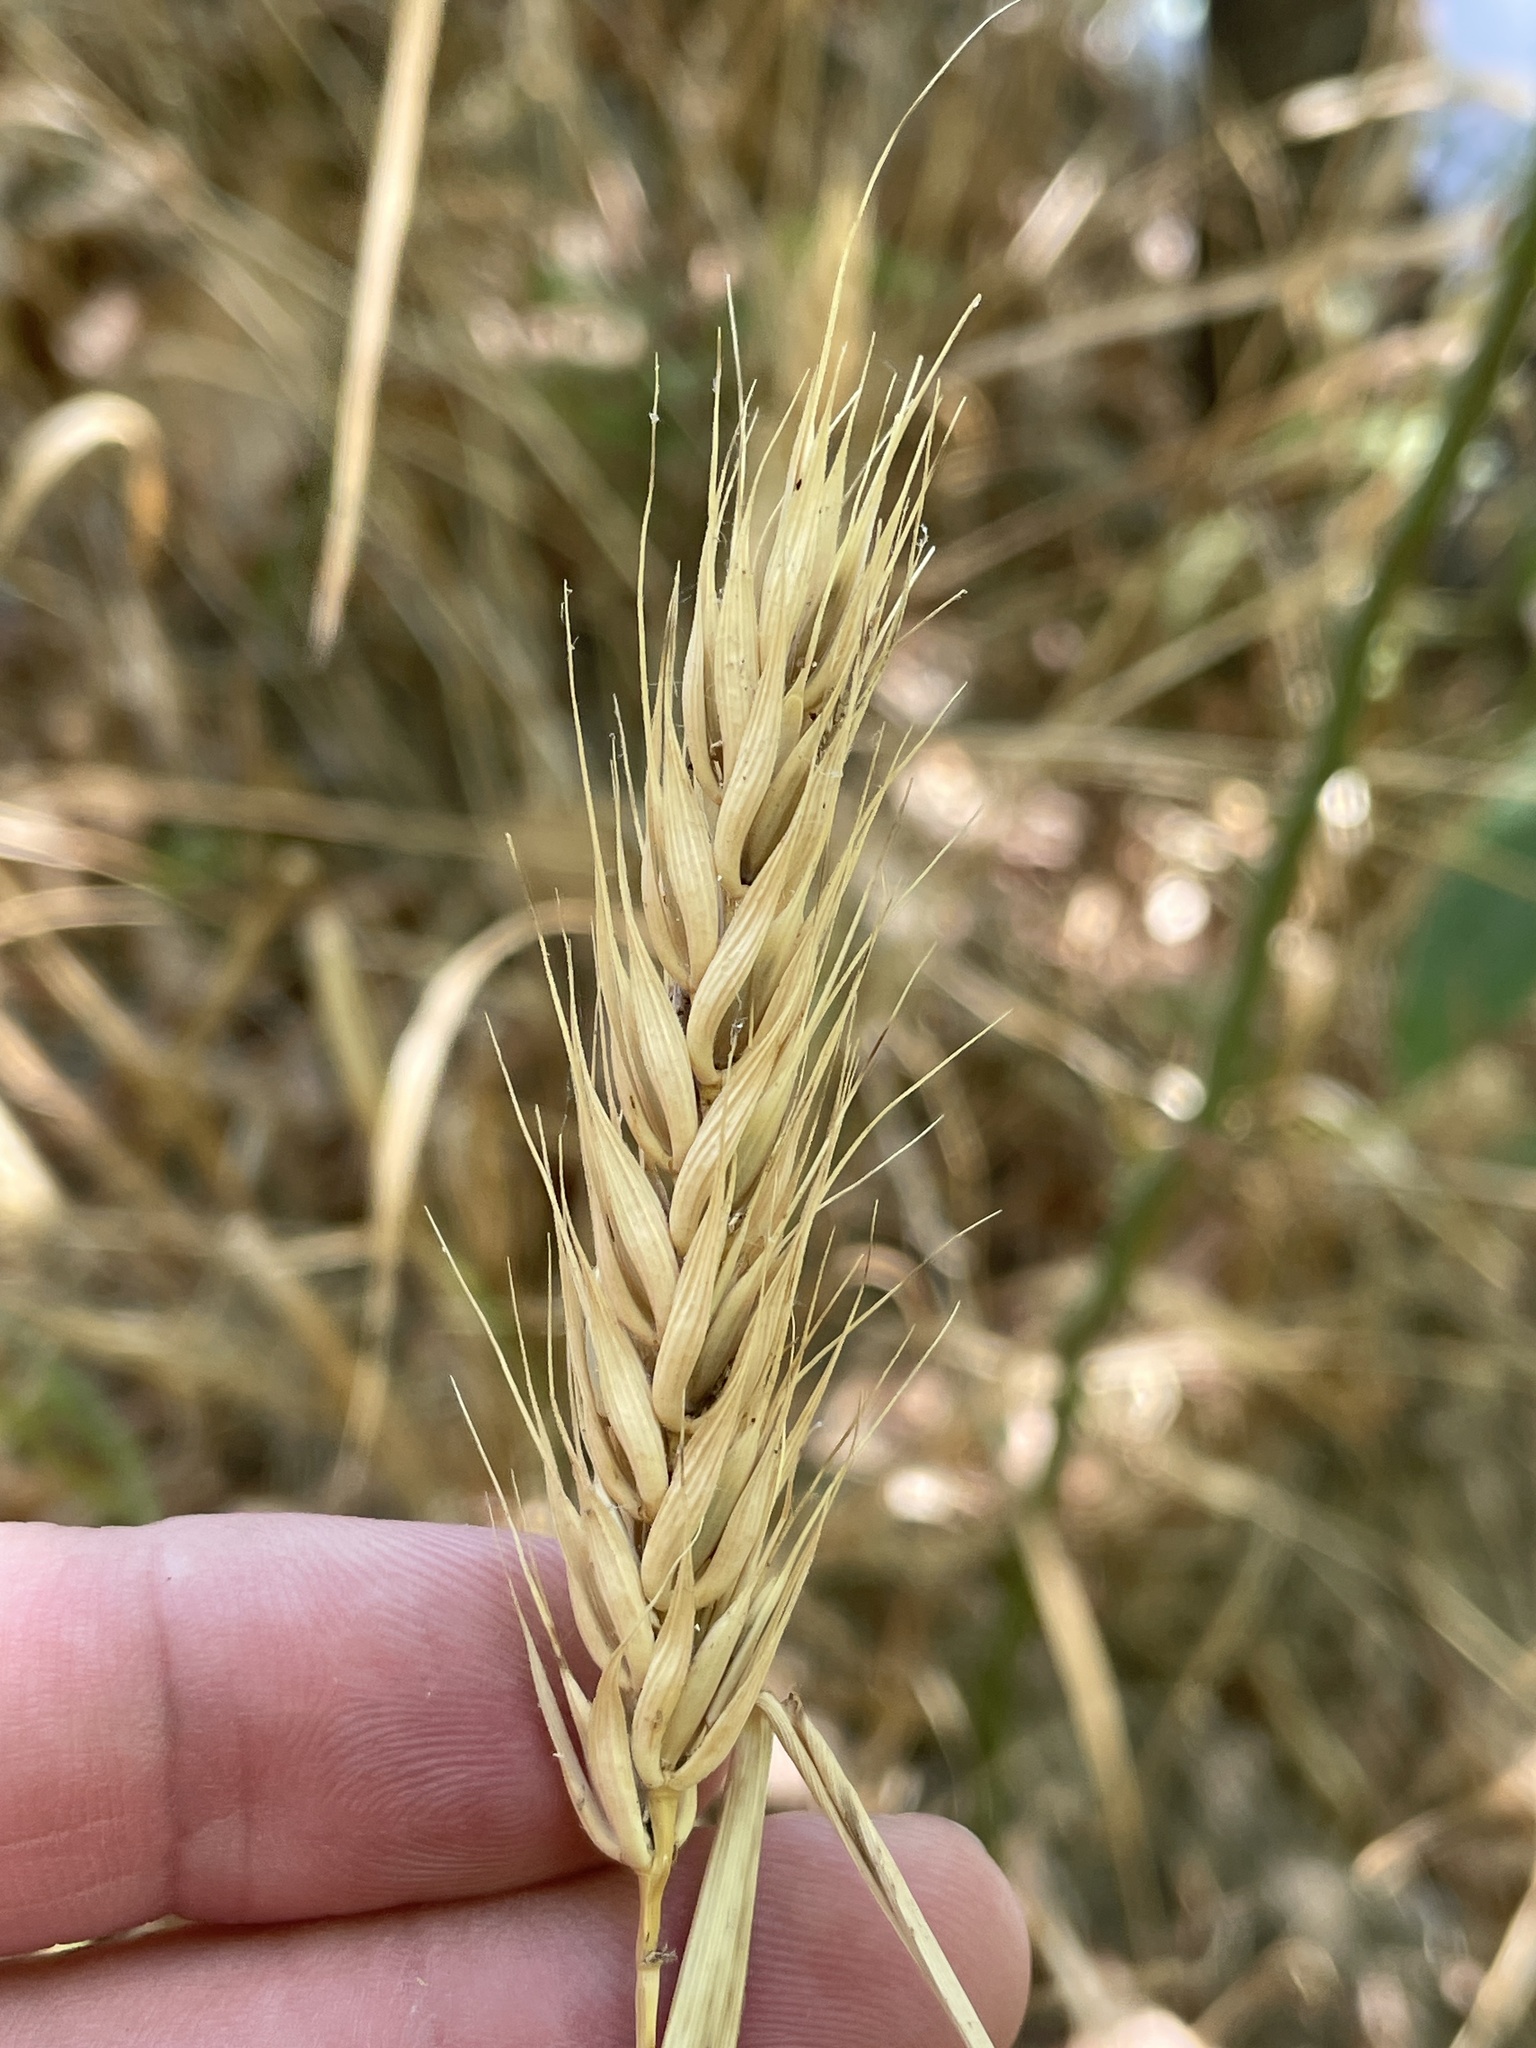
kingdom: Plantae
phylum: Tracheophyta
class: Liliopsida
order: Poales
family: Poaceae
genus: Elymus
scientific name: Elymus virginicus
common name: Common eastern wildrye
